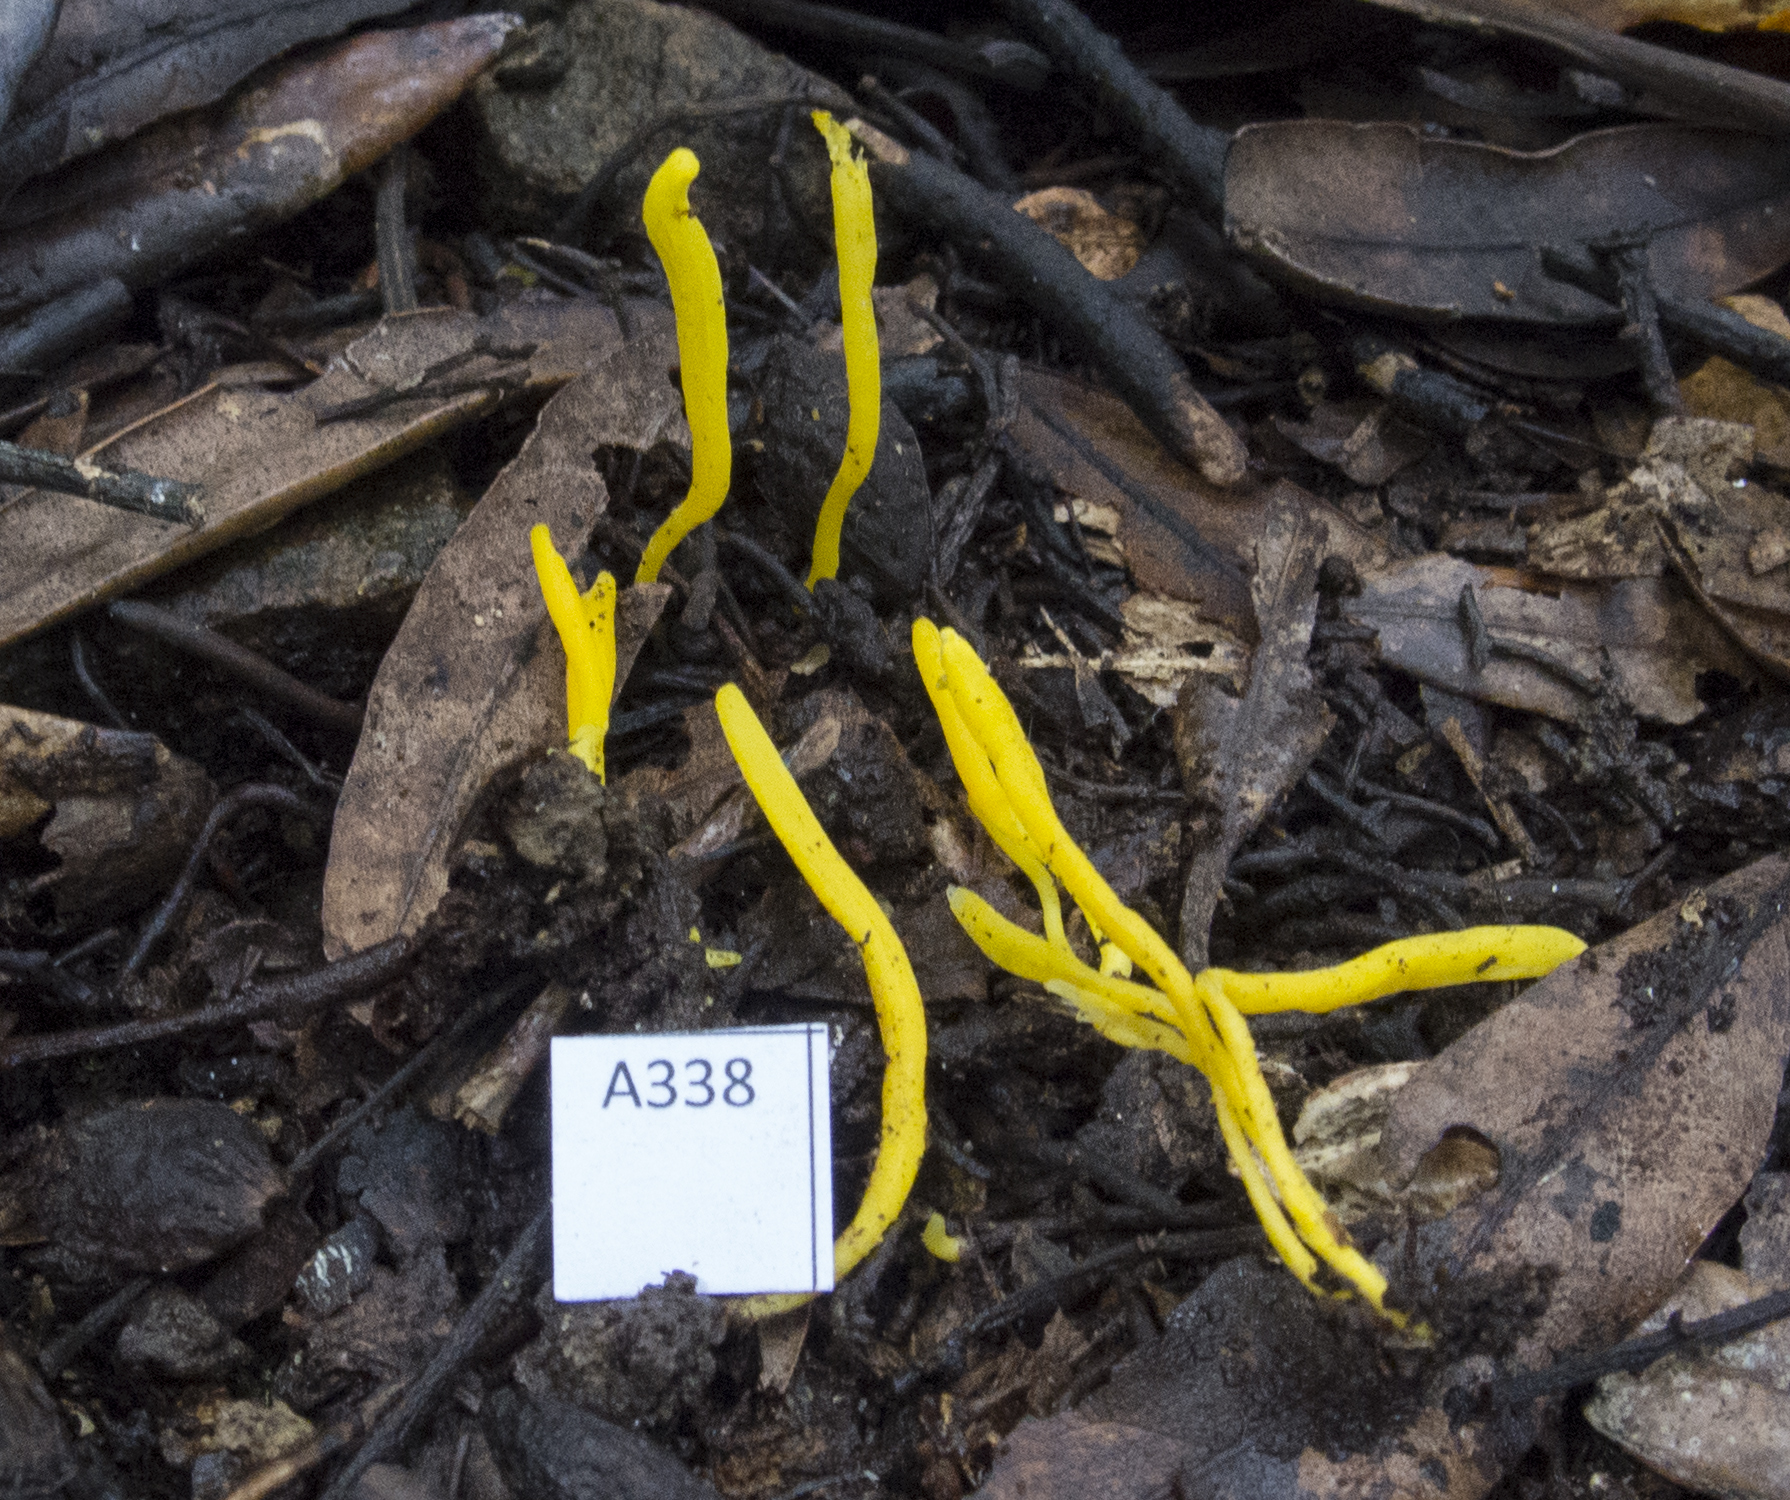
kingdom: Fungi
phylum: Basidiomycota
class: Agaricomycetes
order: Agaricales
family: Clavariaceae
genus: Clavulinopsis
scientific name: Clavulinopsis spiralis
